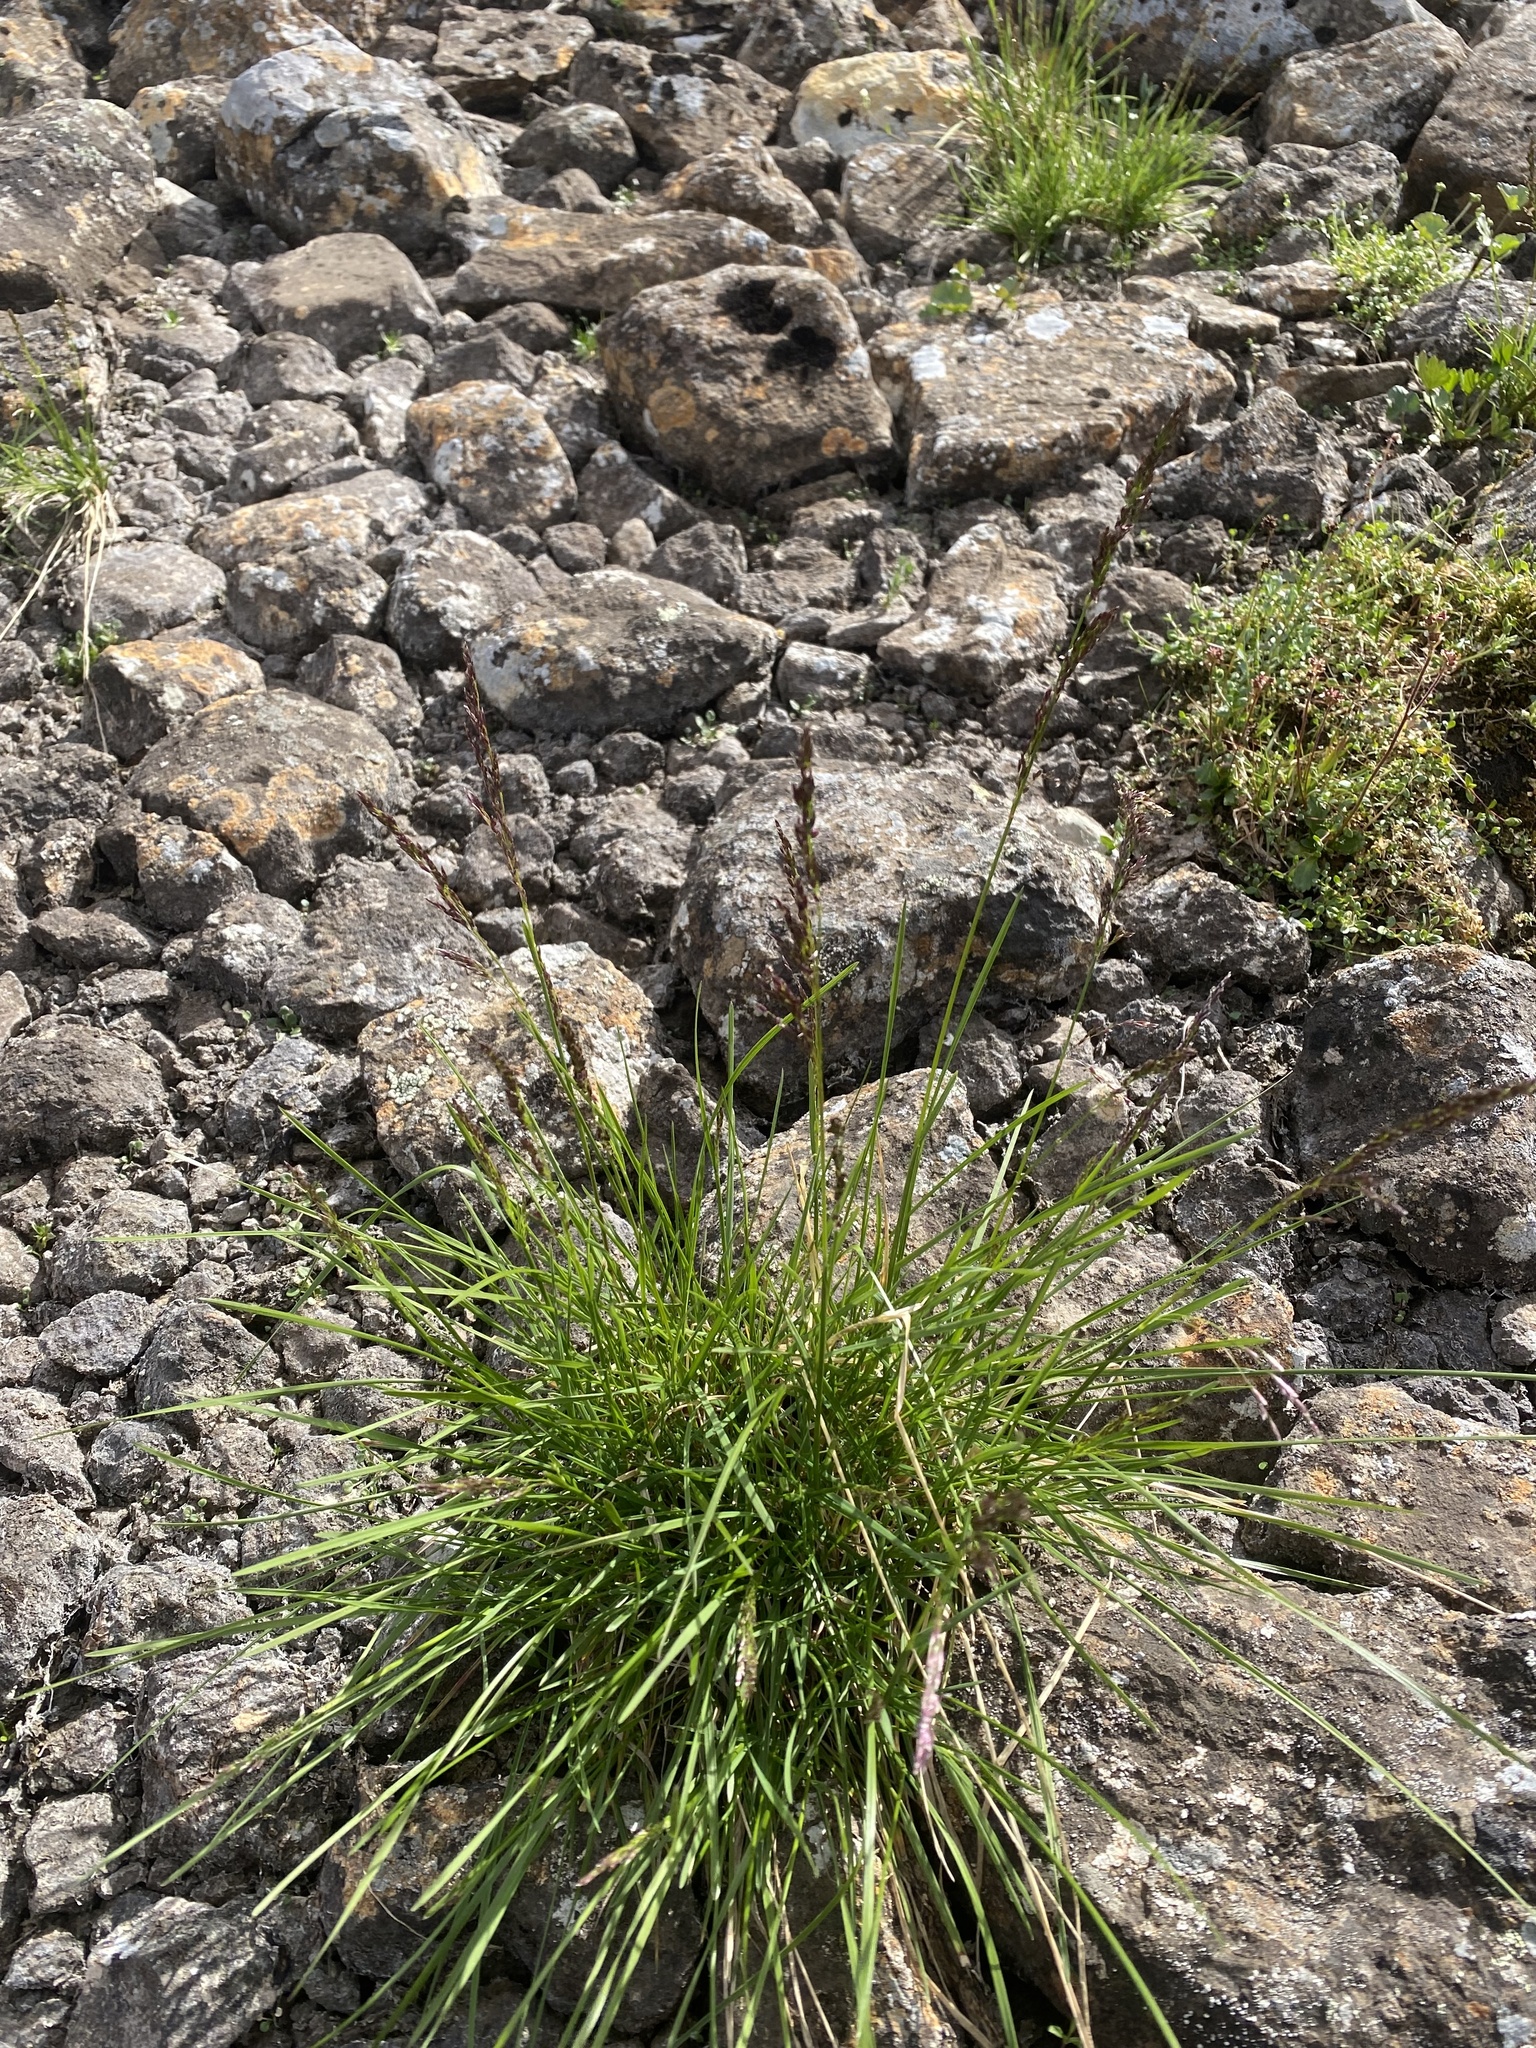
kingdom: Plantae
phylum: Tracheophyta
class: Liliopsida
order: Poales
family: Poaceae
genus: Deschampsia
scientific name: Deschampsia cespitosa
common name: Tufted hair-grass
